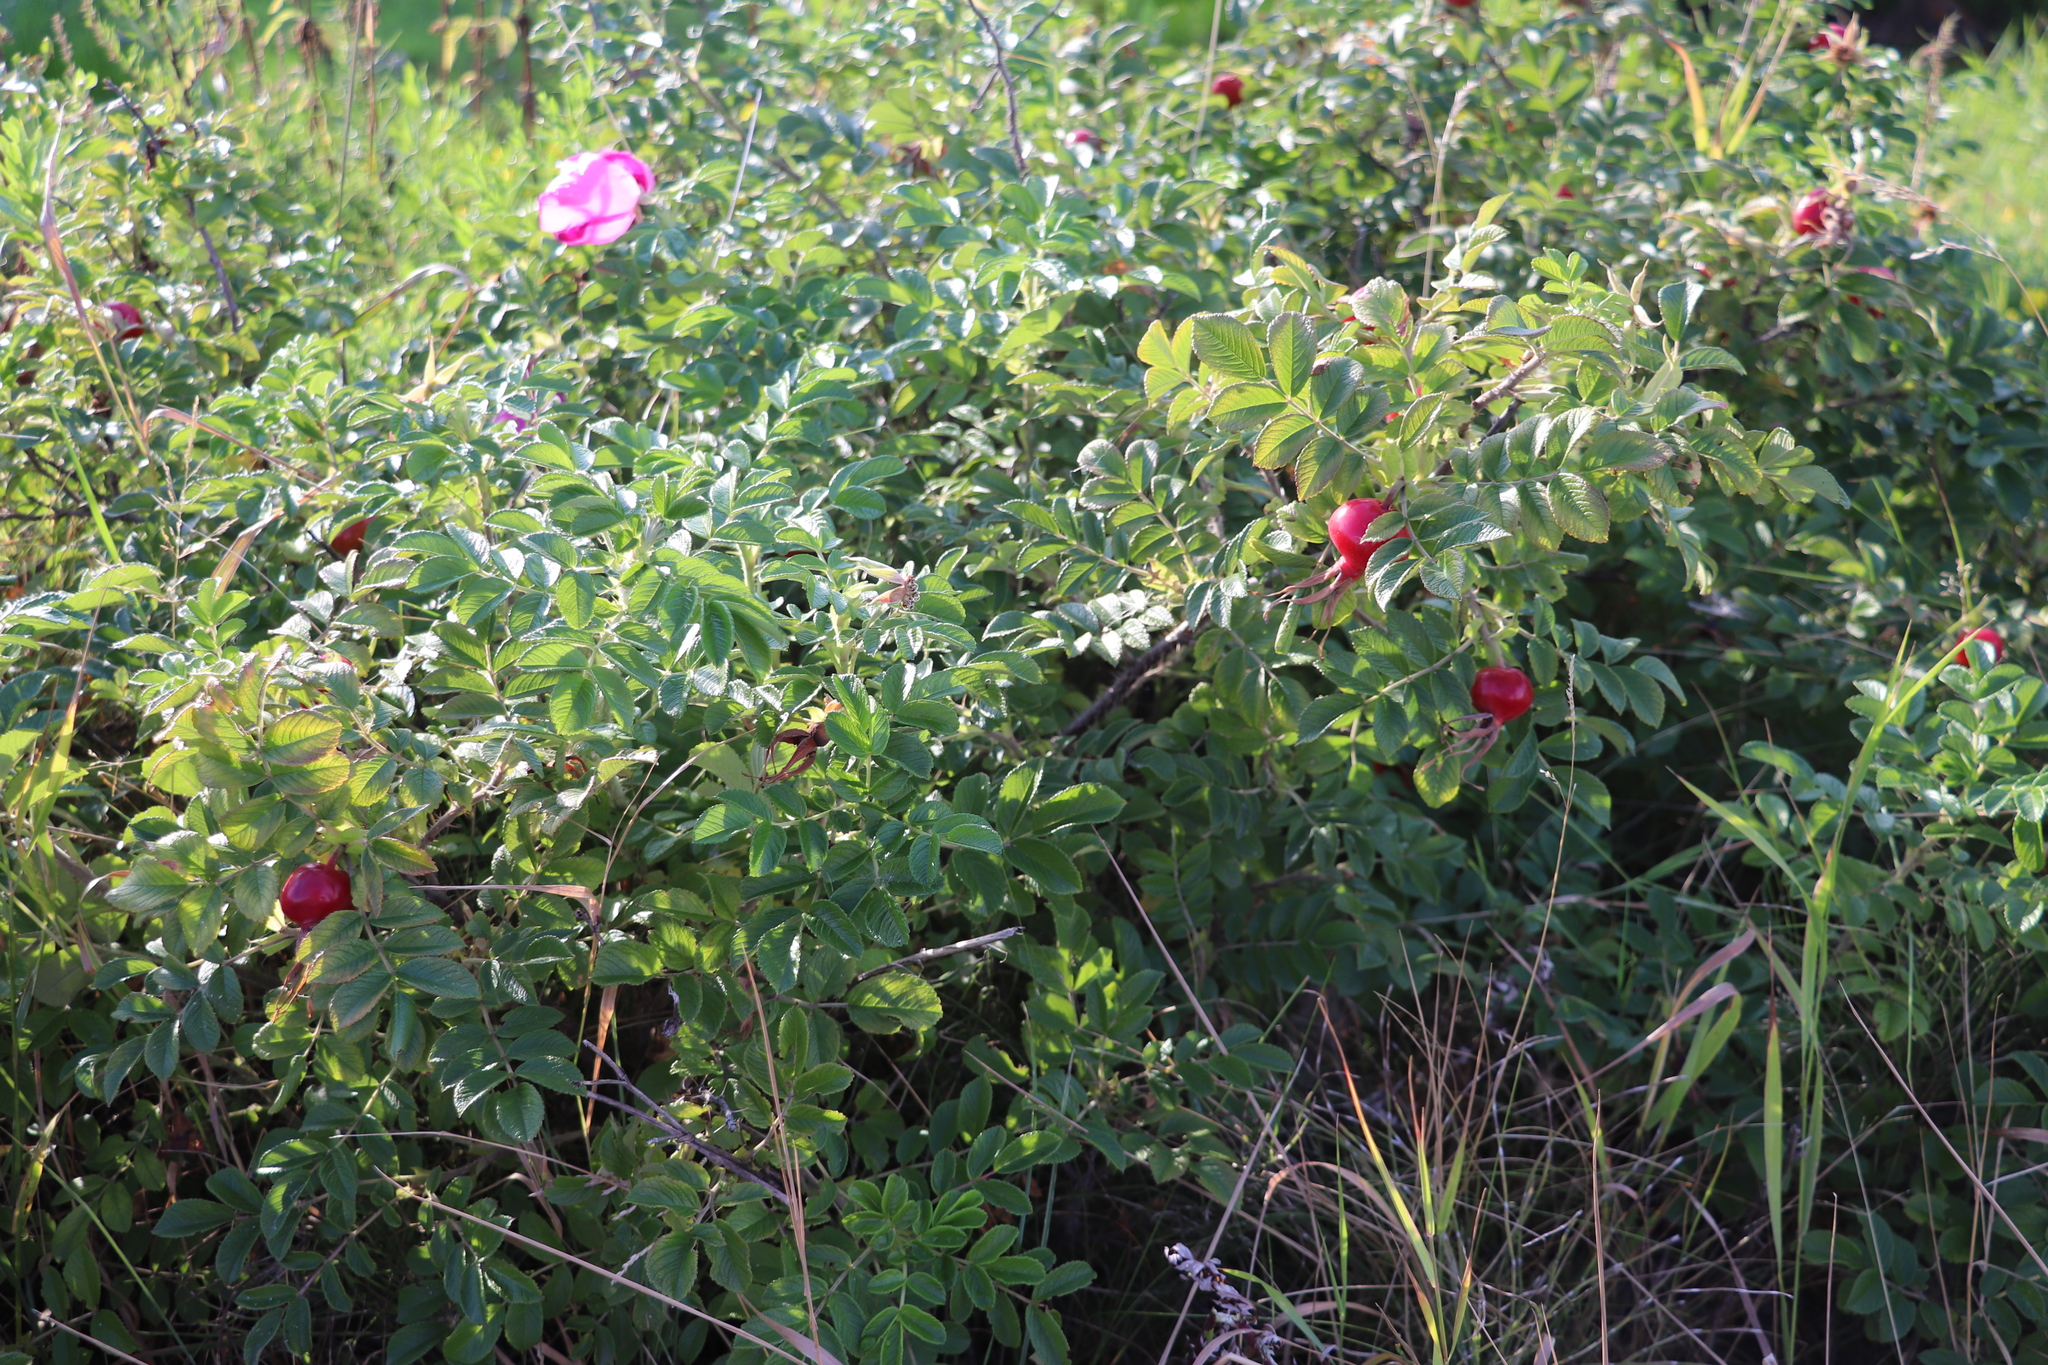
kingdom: Plantae
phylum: Tracheophyta
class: Magnoliopsida
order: Rosales
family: Rosaceae
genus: Rosa
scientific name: Rosa rugosa
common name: Japanese rose
